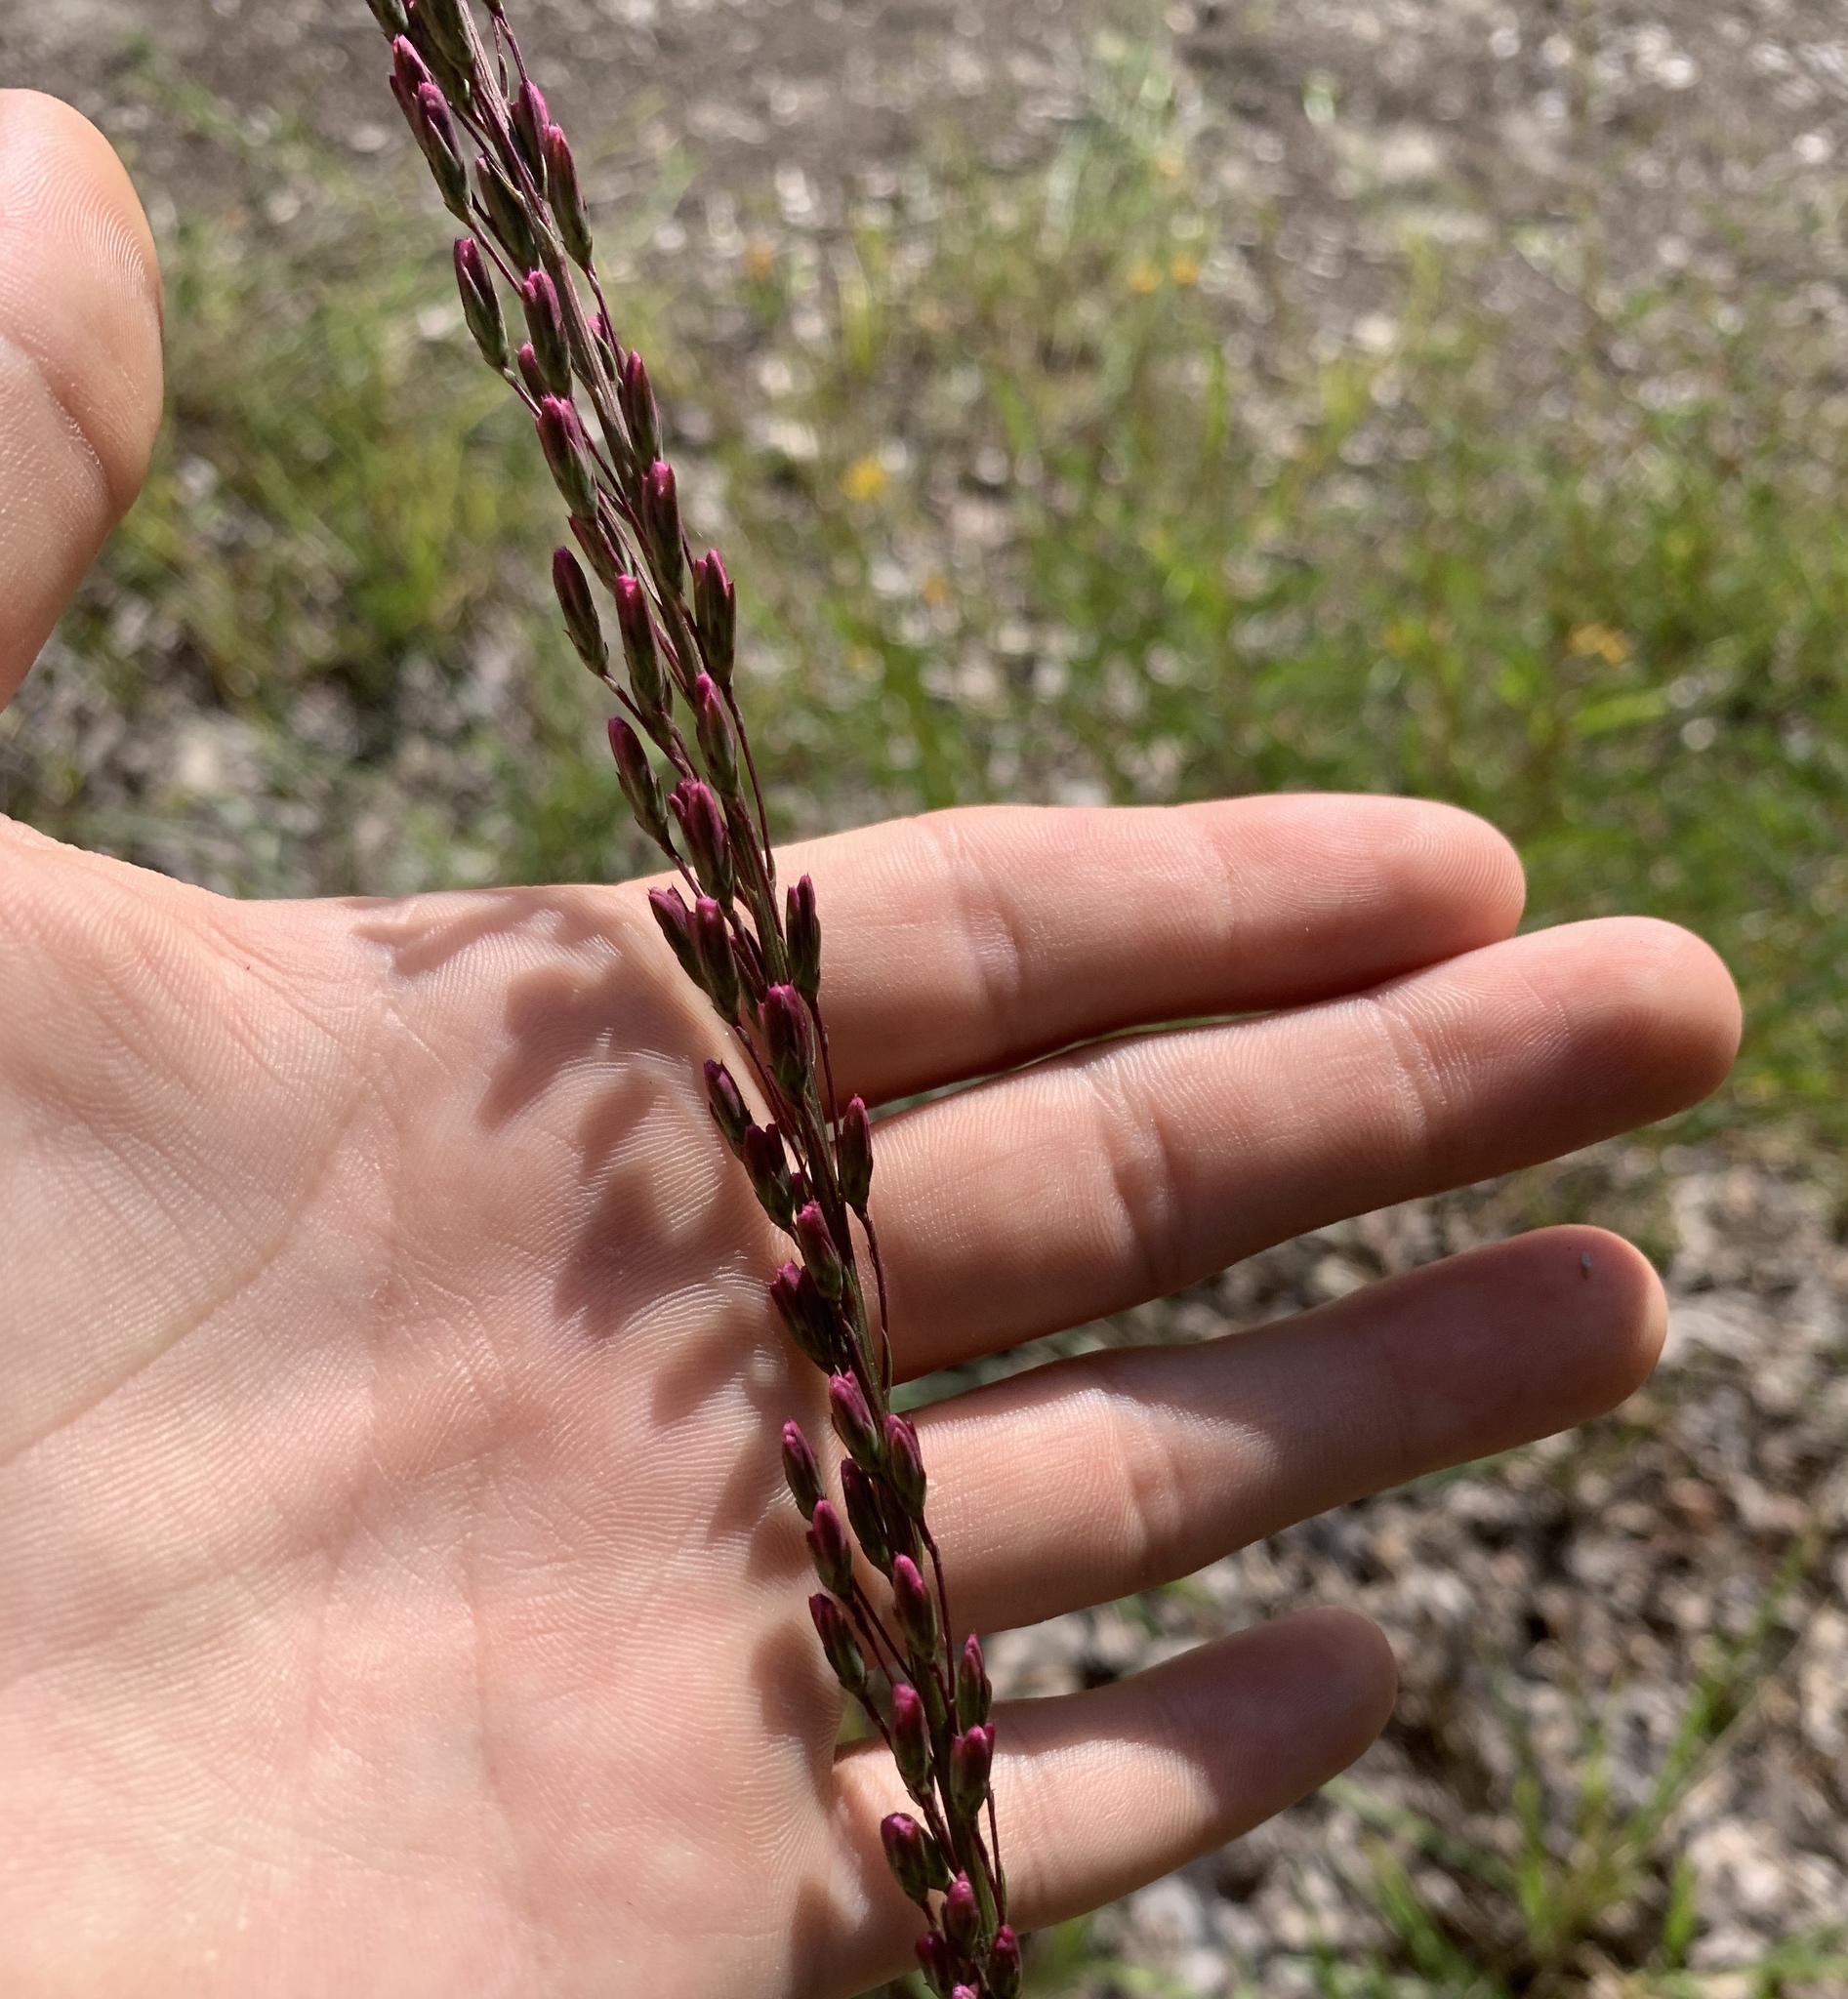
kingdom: Plantae
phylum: Tracheophyta
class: Magnoliopsida
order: Asterales
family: Asteraceae
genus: Liatris
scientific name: Liatris tenuifolia
